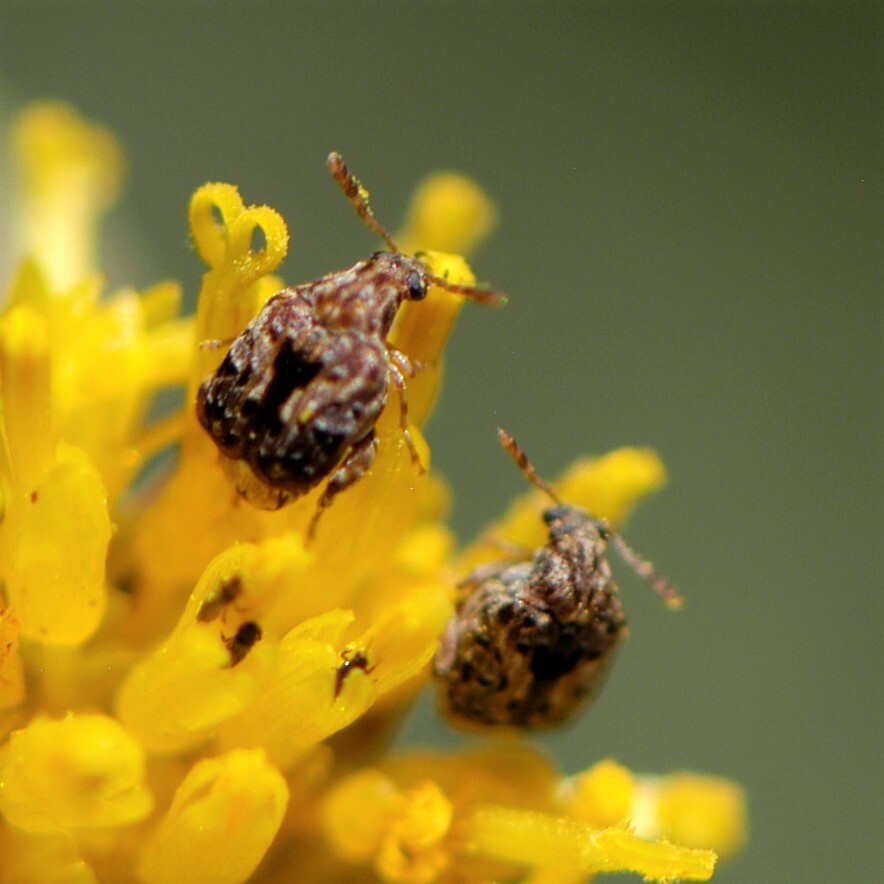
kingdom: Animalia
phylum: Arthropoda
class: Insecta
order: Coleoptera
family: Chrysomelidae
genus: Gibbobruchus
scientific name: Gibbobruchus mimus
